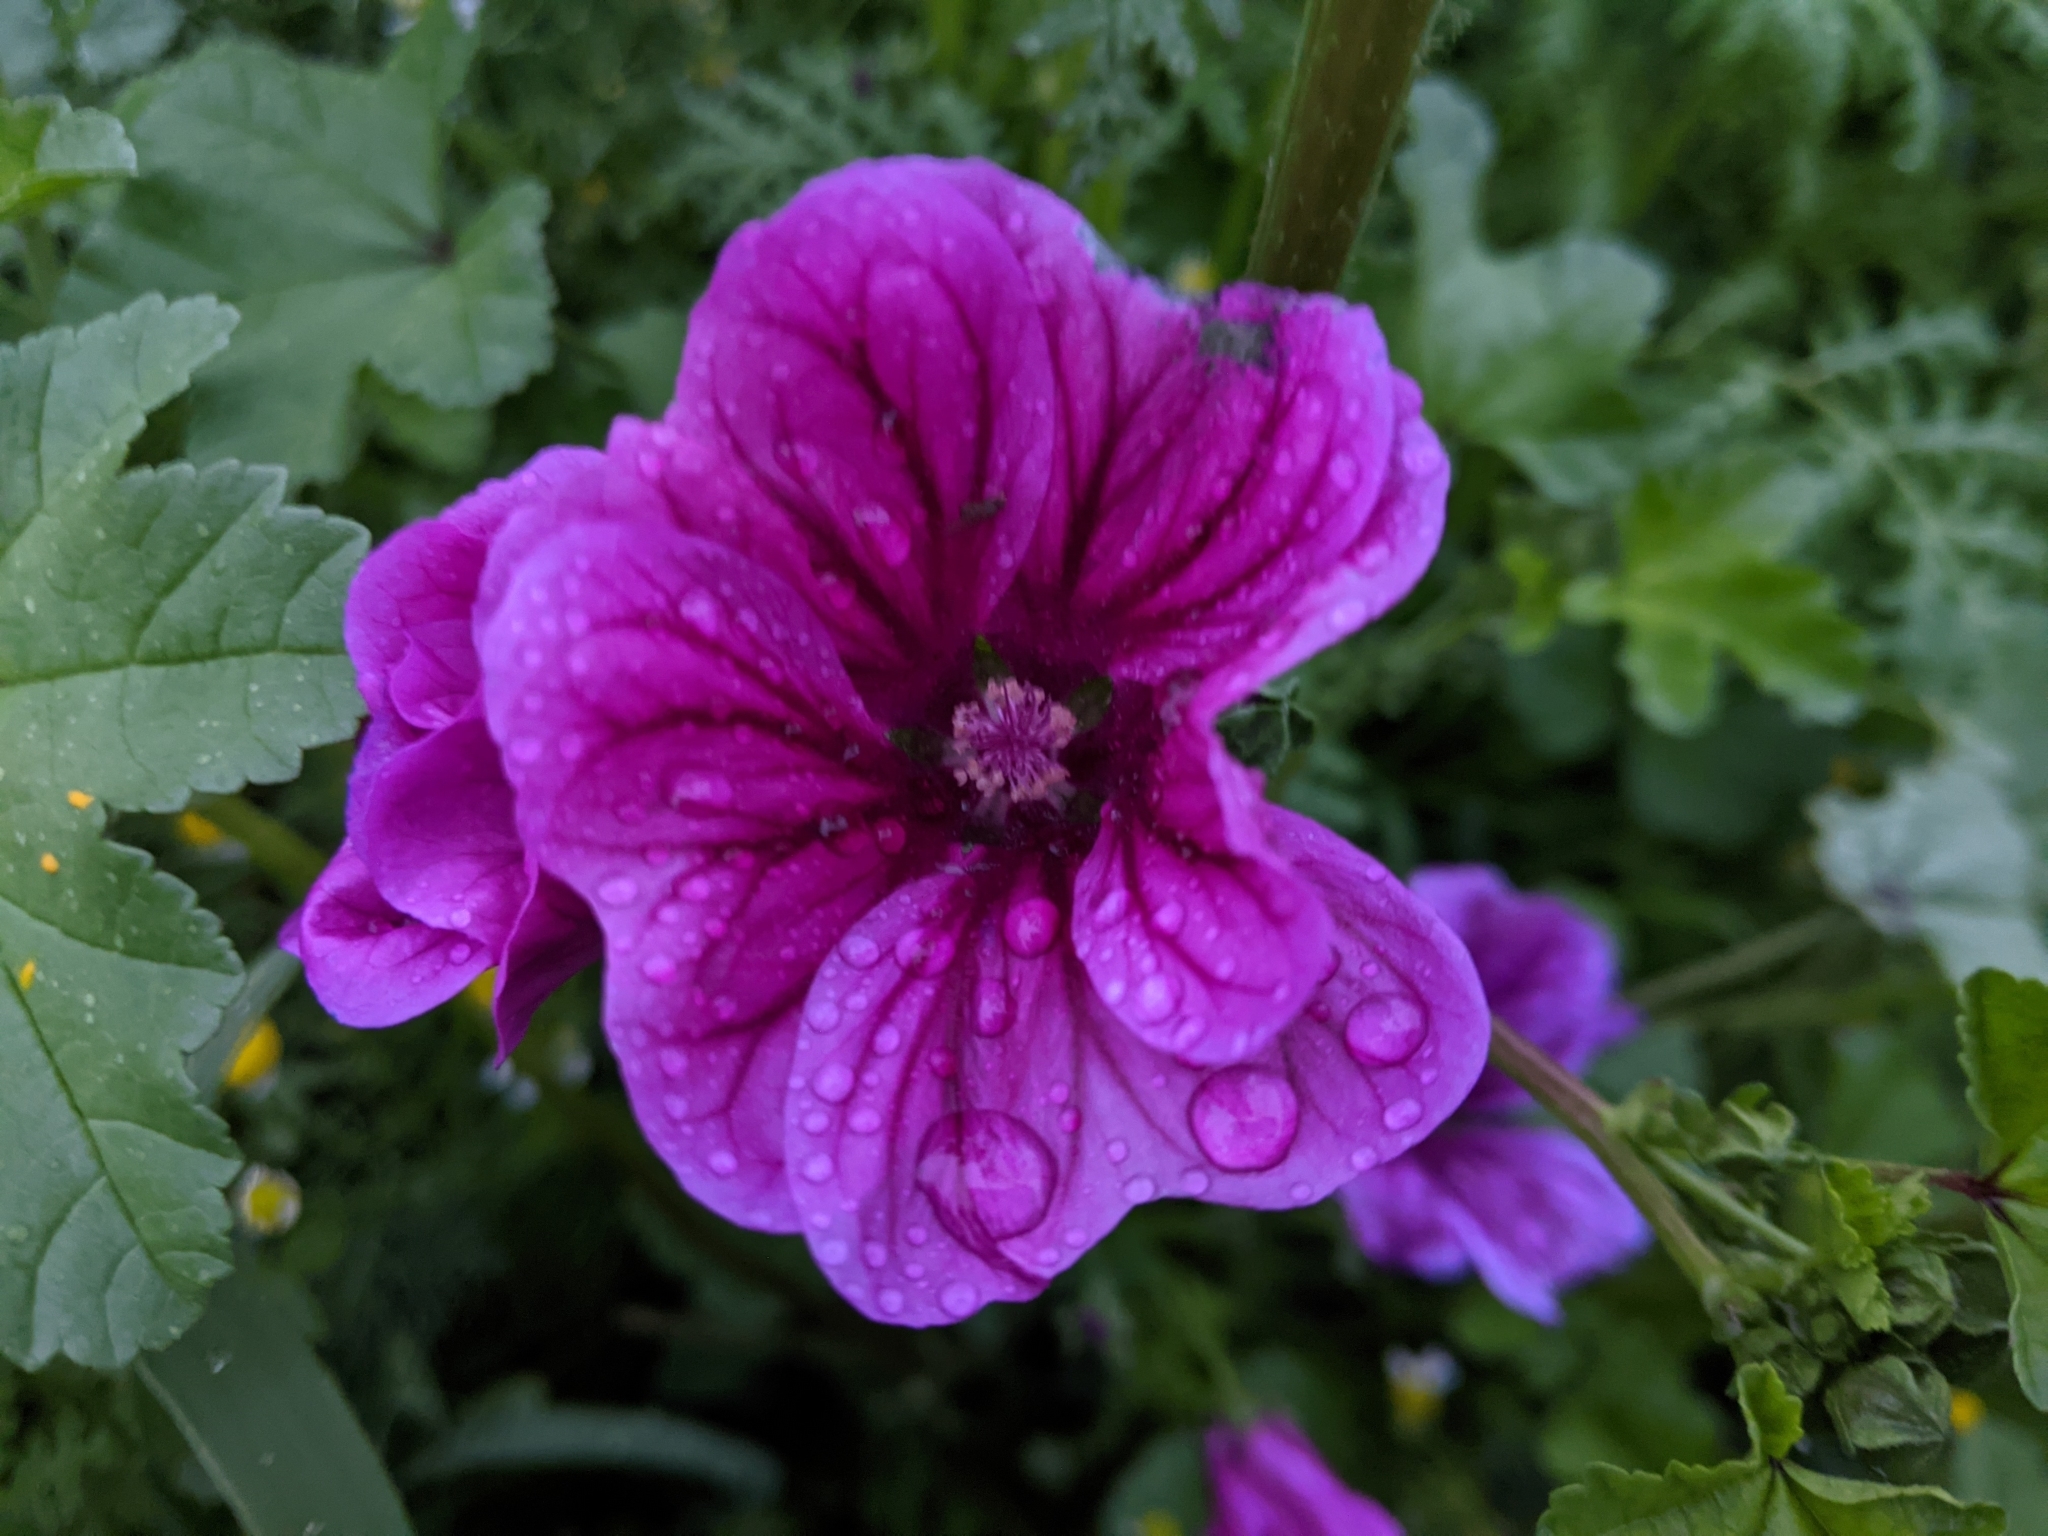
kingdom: Plantae
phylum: Tracheophyta
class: Magnoliopsida
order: Malvales
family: Malvaceae
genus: Malva
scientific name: Malva sylvestris
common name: Common mallow
